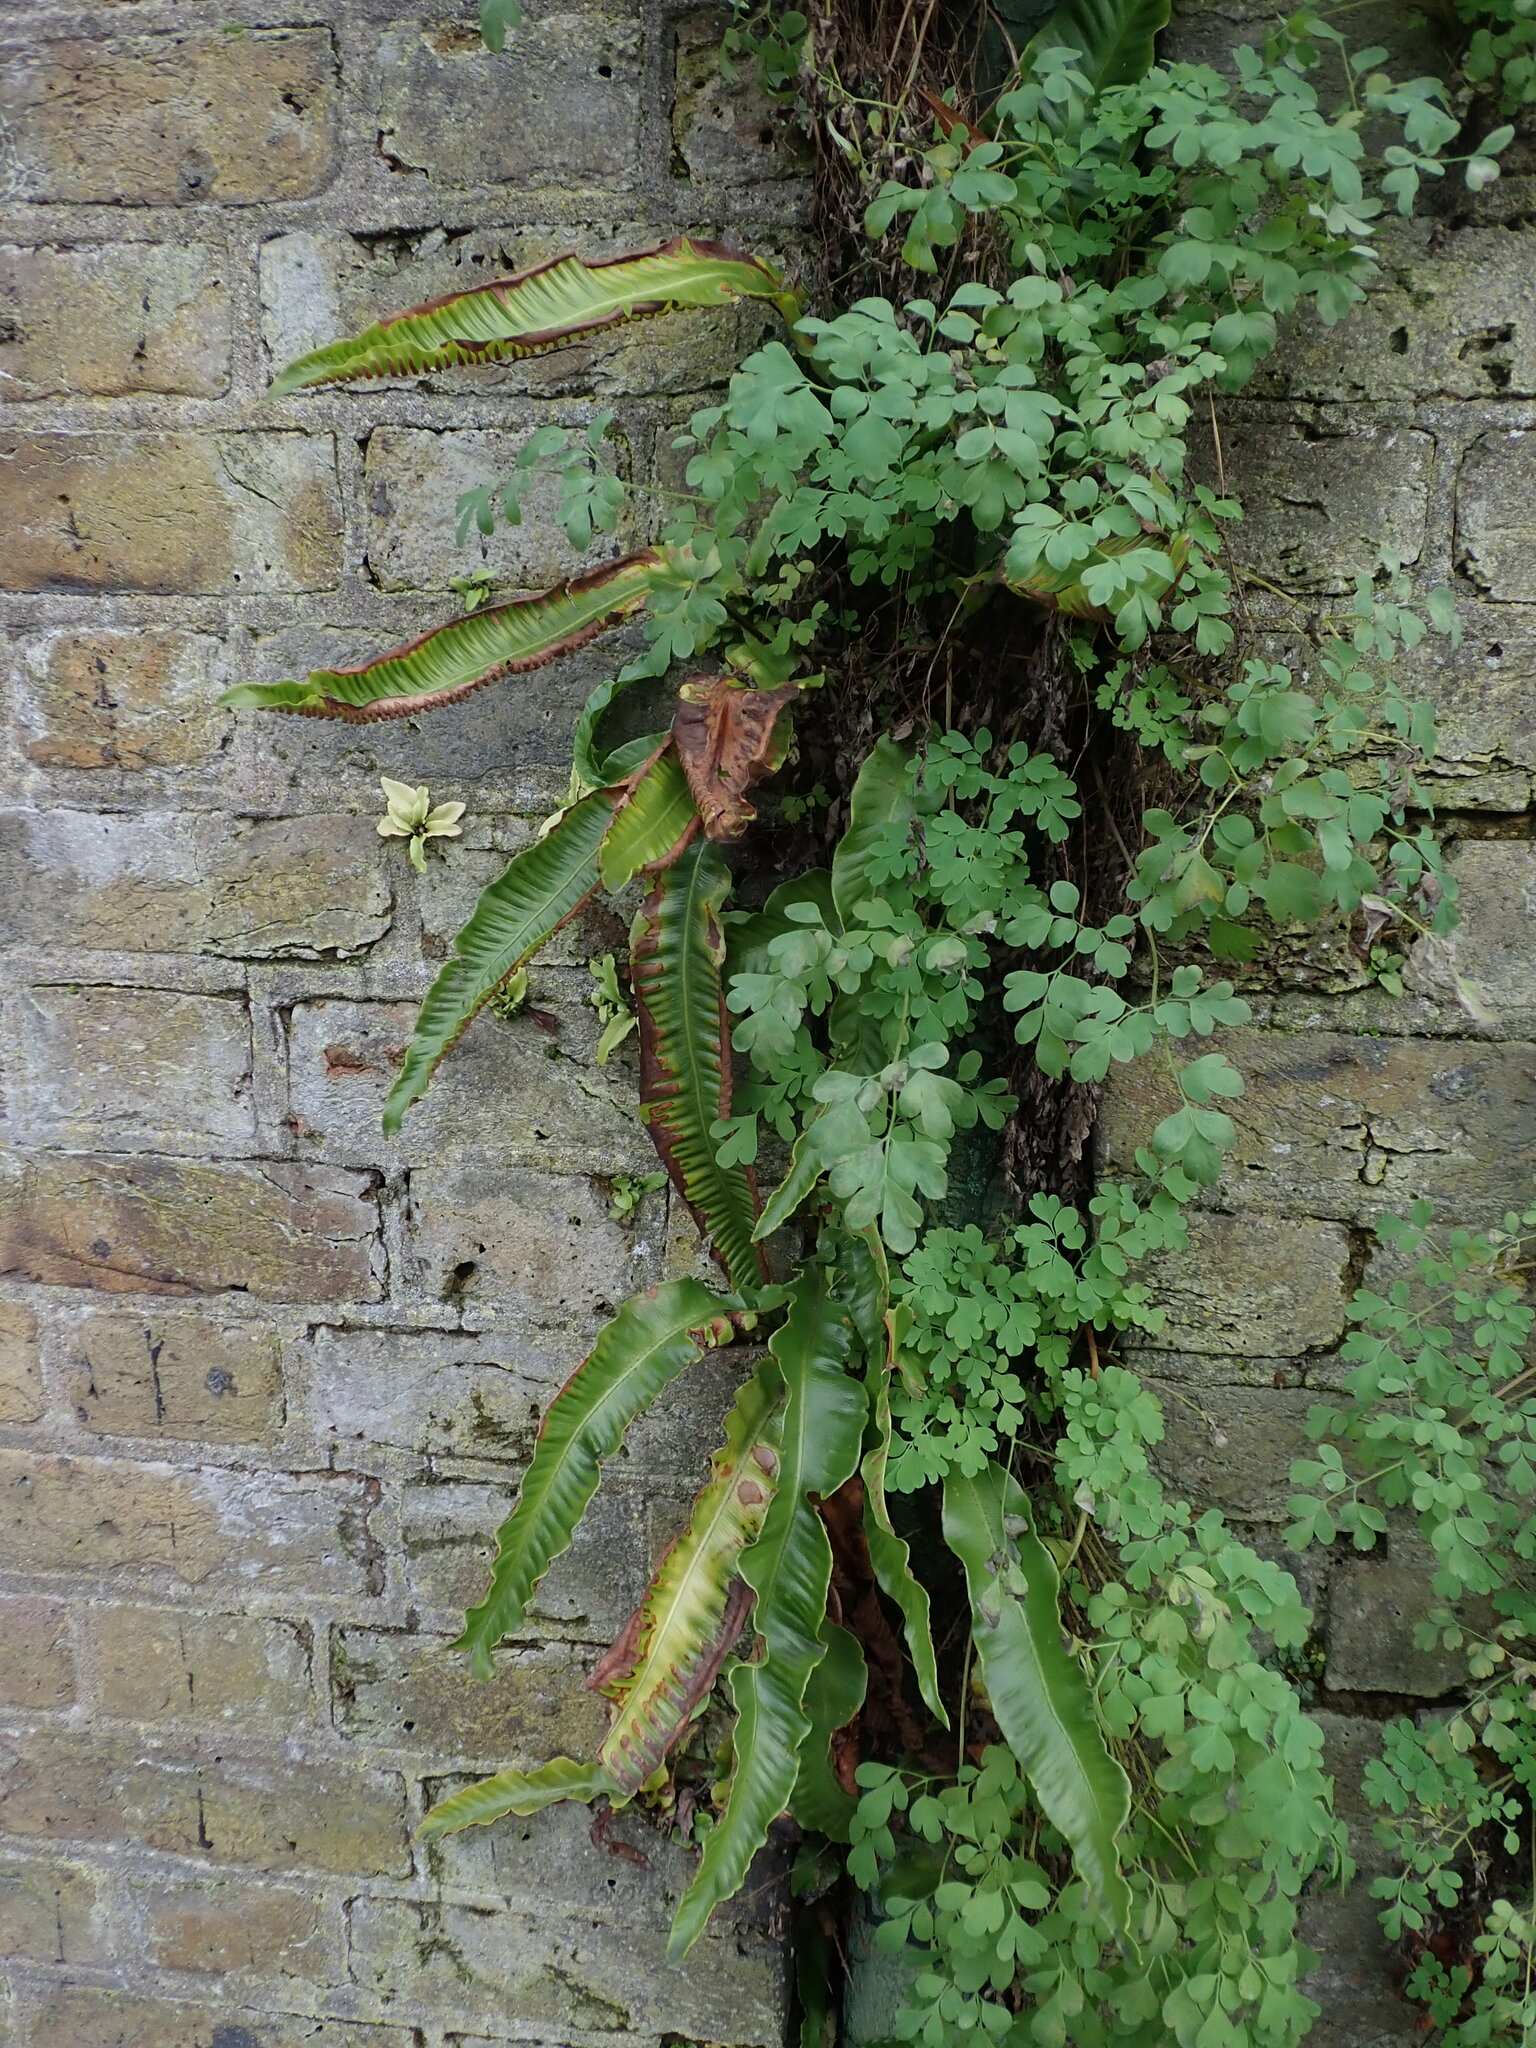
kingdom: Plantae
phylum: Tracheophyta
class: Polypodiopsida
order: Polypodiales
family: Aspleniaceae
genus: Asplenium
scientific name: Asplenium scolopendrium
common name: Hart's-tongue fern
